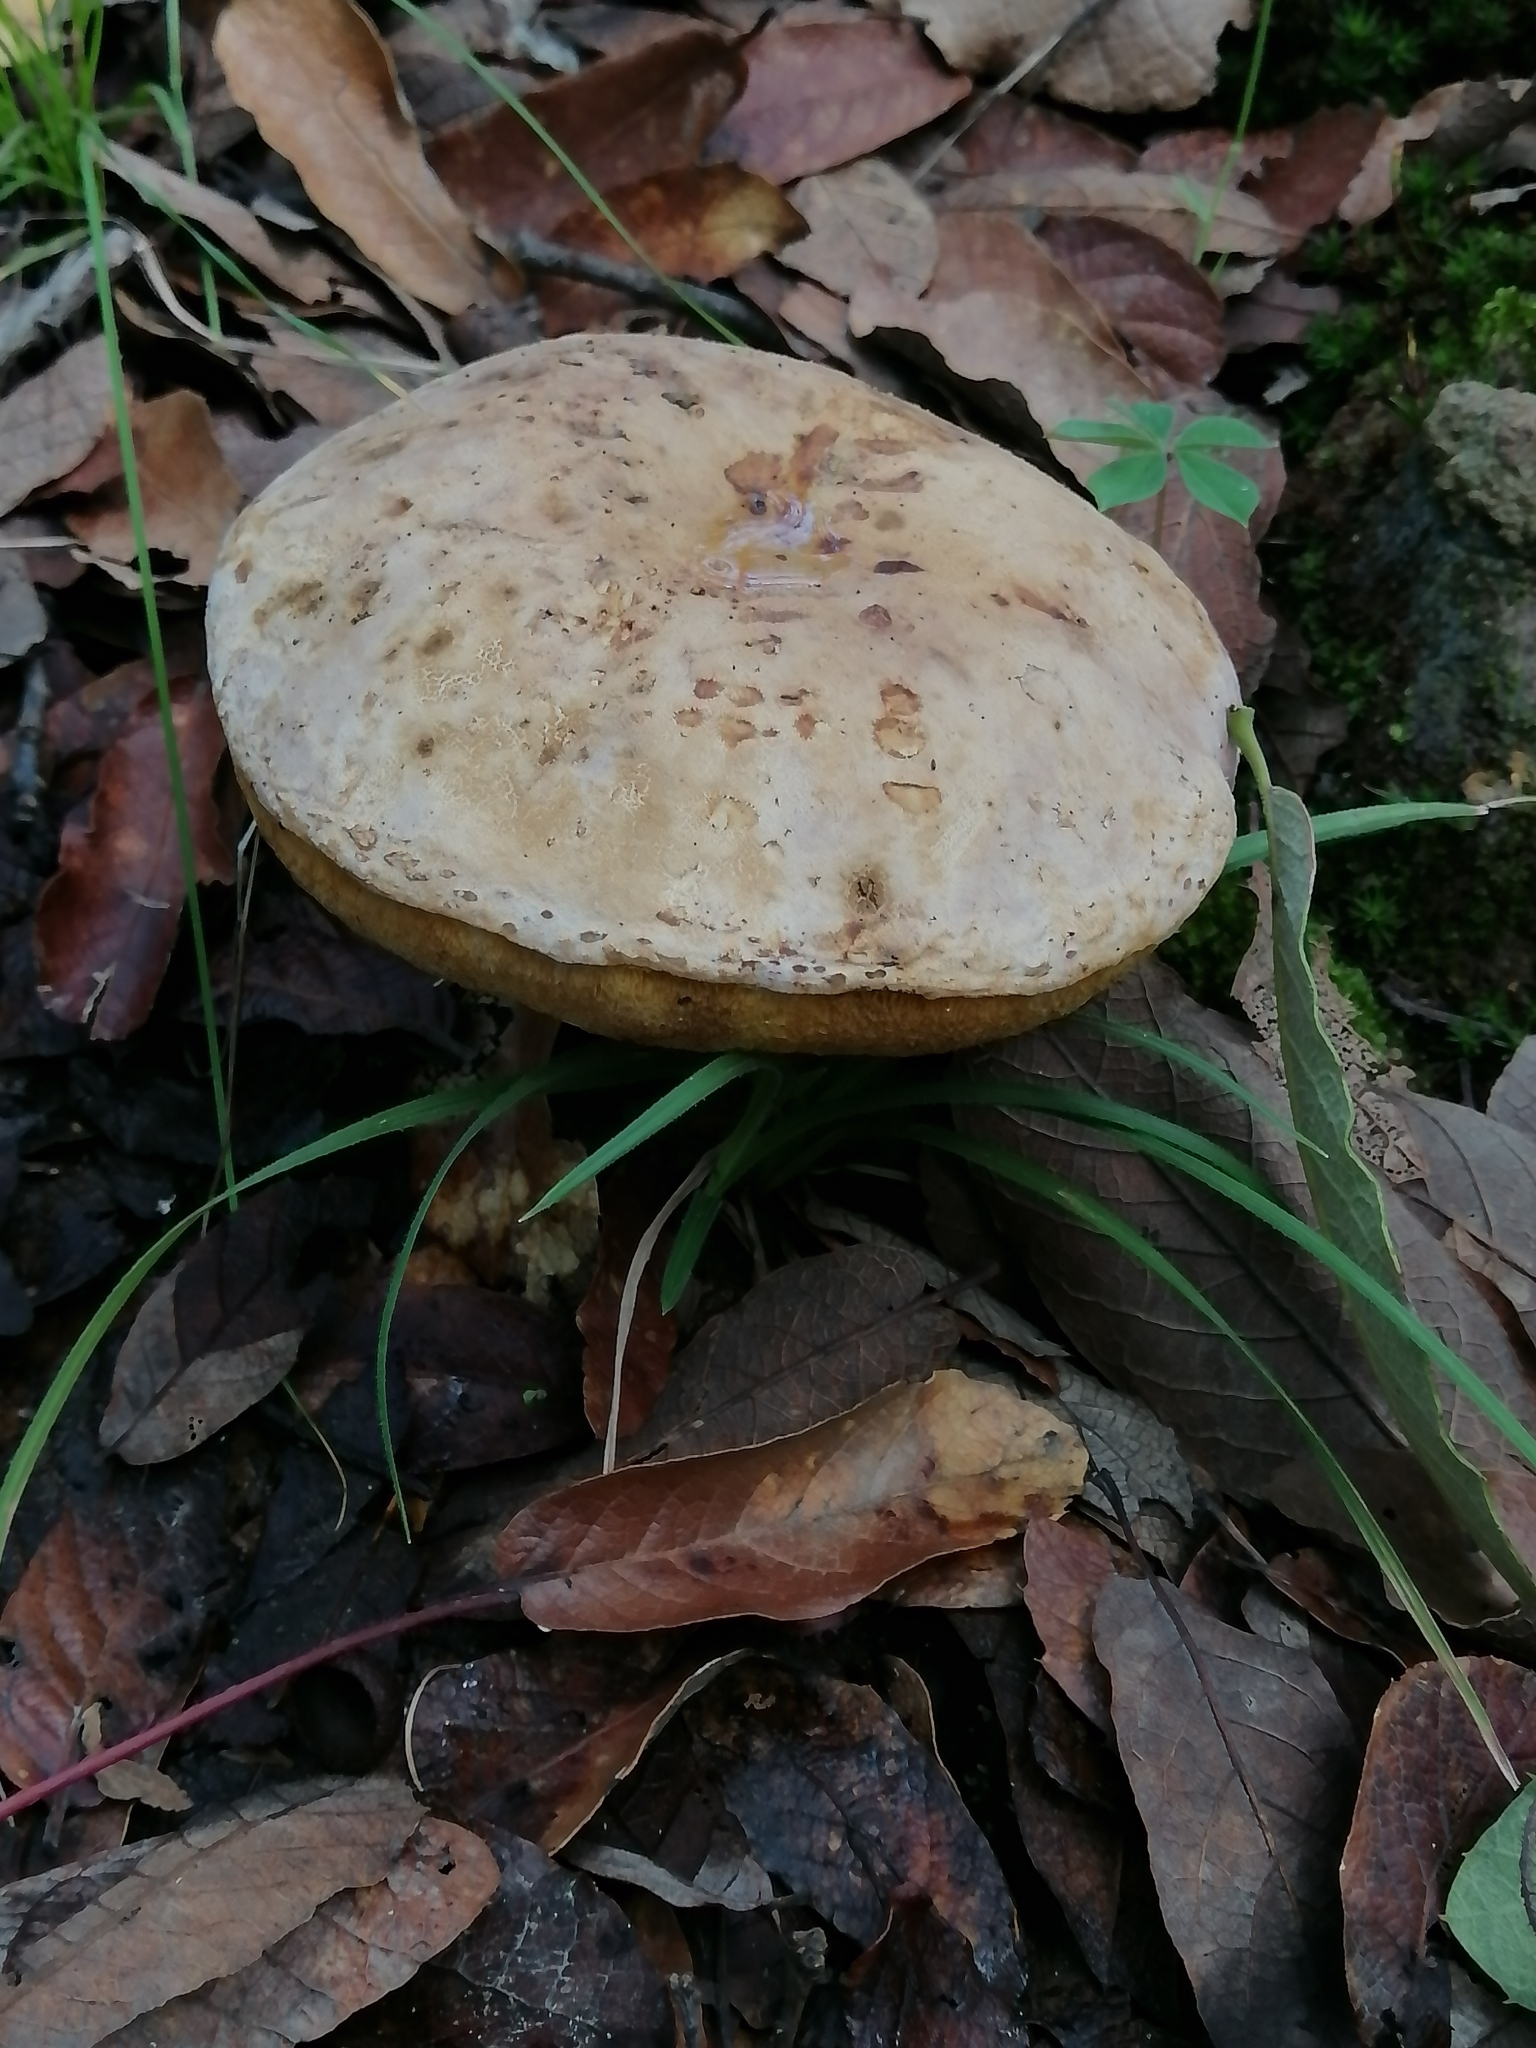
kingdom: Fungi
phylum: Basidiomycota
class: Agaricomycetes
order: Boletales
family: Boletaceae
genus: Fistulinella
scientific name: Fistulinella wolfeana
